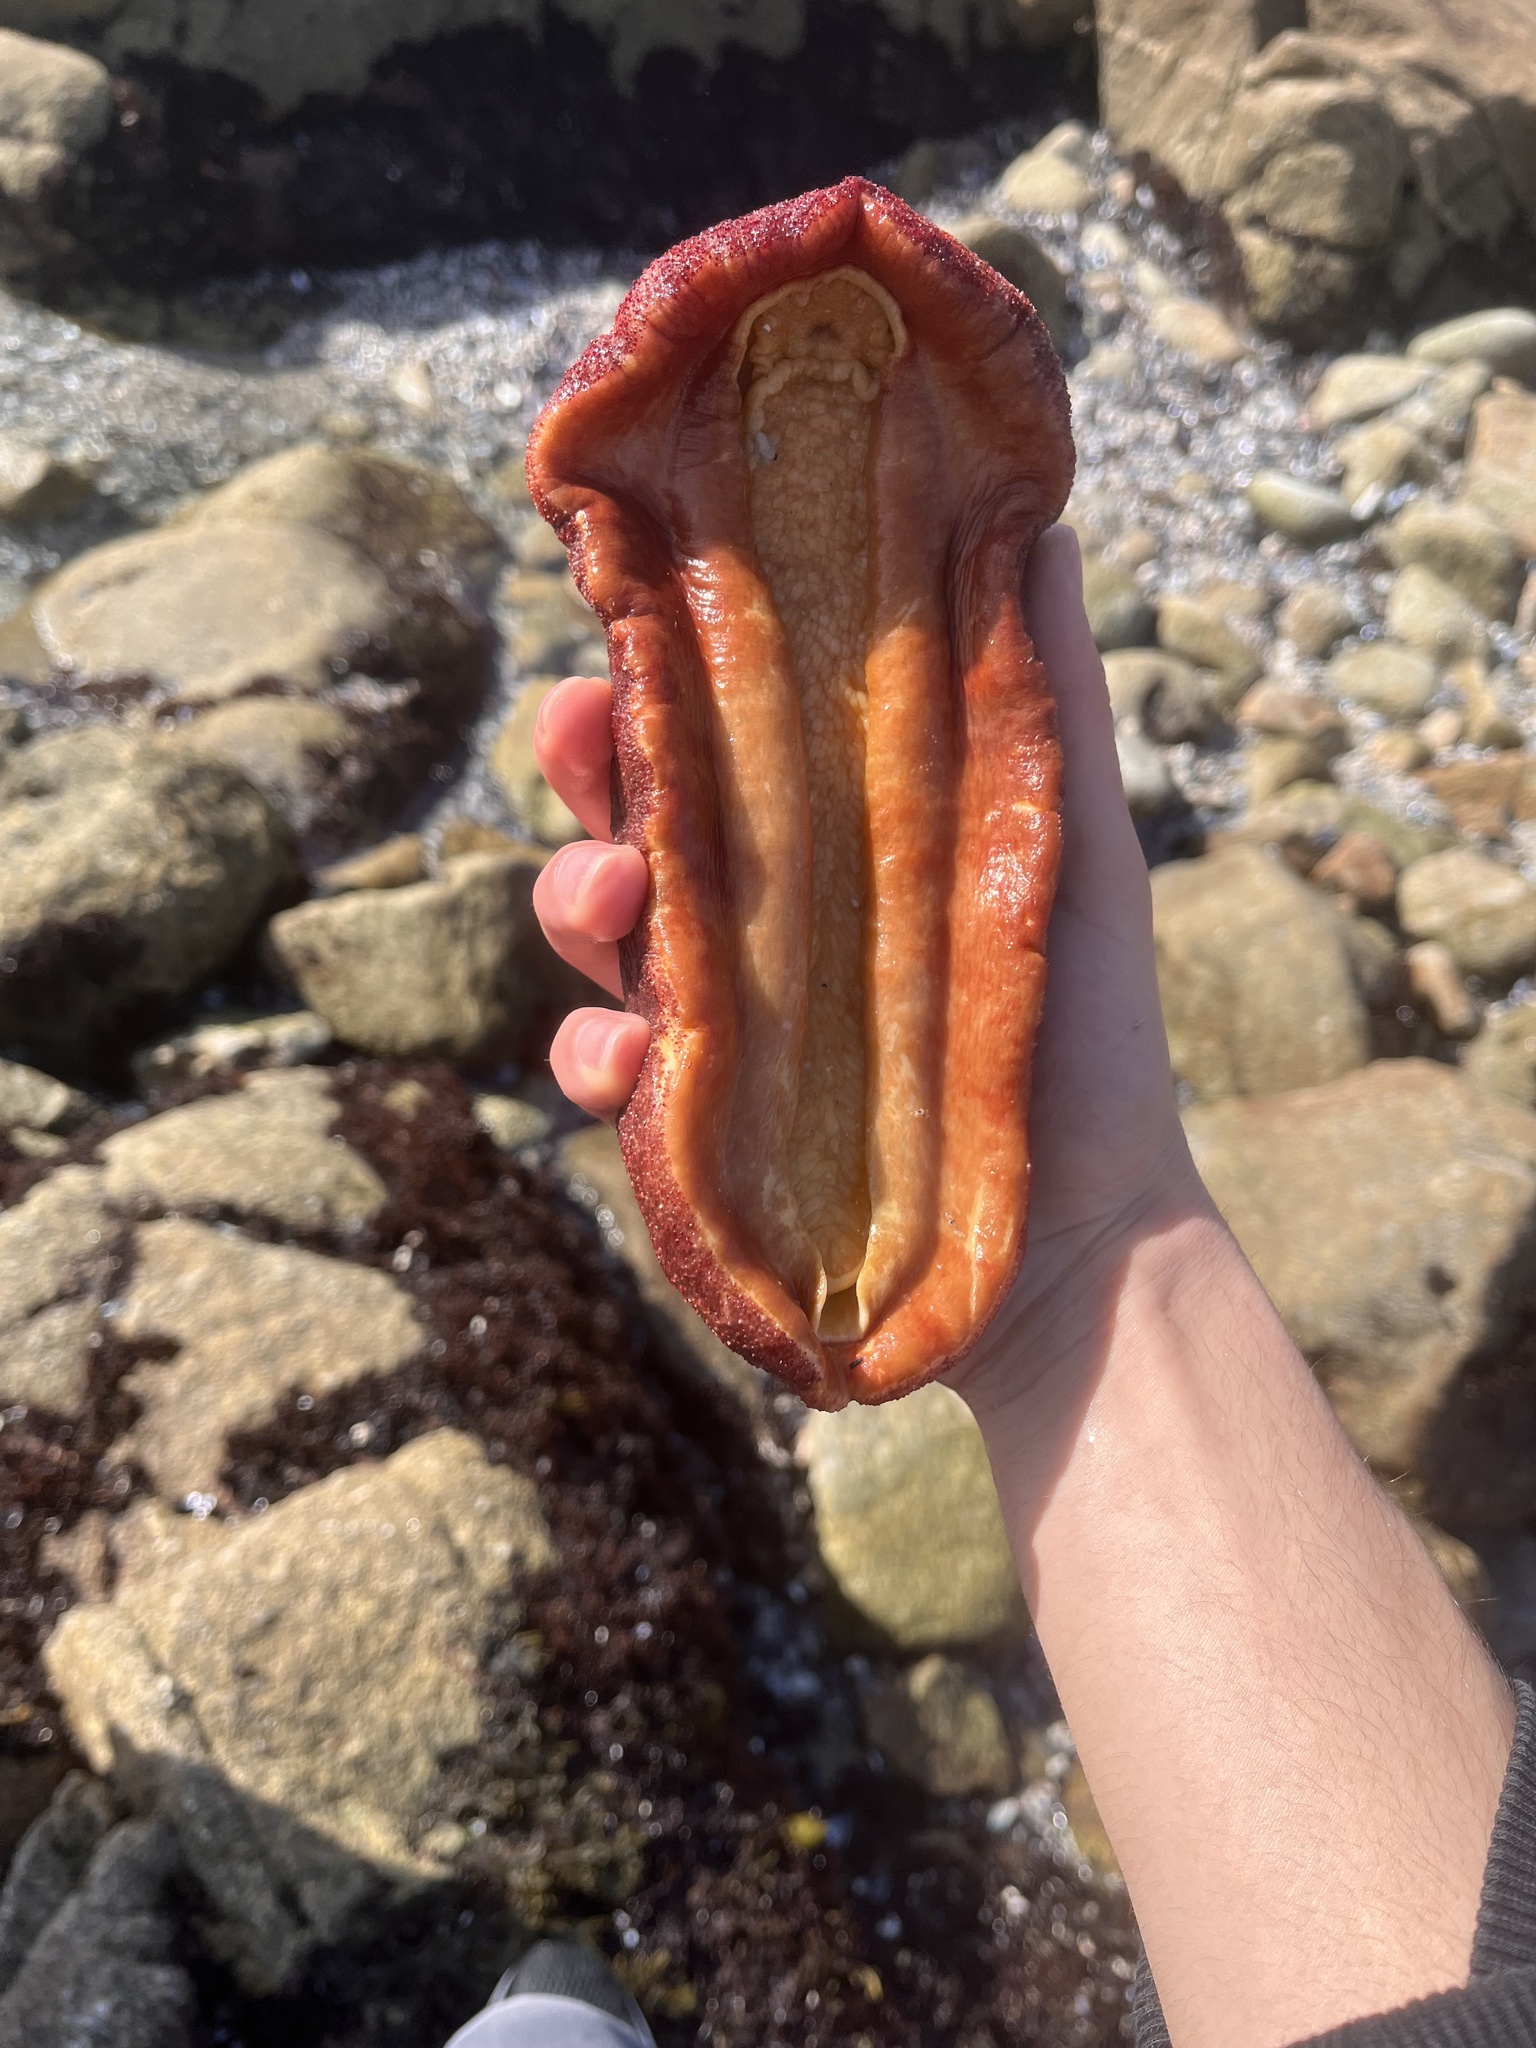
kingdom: Animalia
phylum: Mollusca
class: Polyplacophora
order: Chitonida
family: Acanthochitonidae
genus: Cryptochiton
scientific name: Cryptochiton stelleri
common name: Giant pacific chiton
